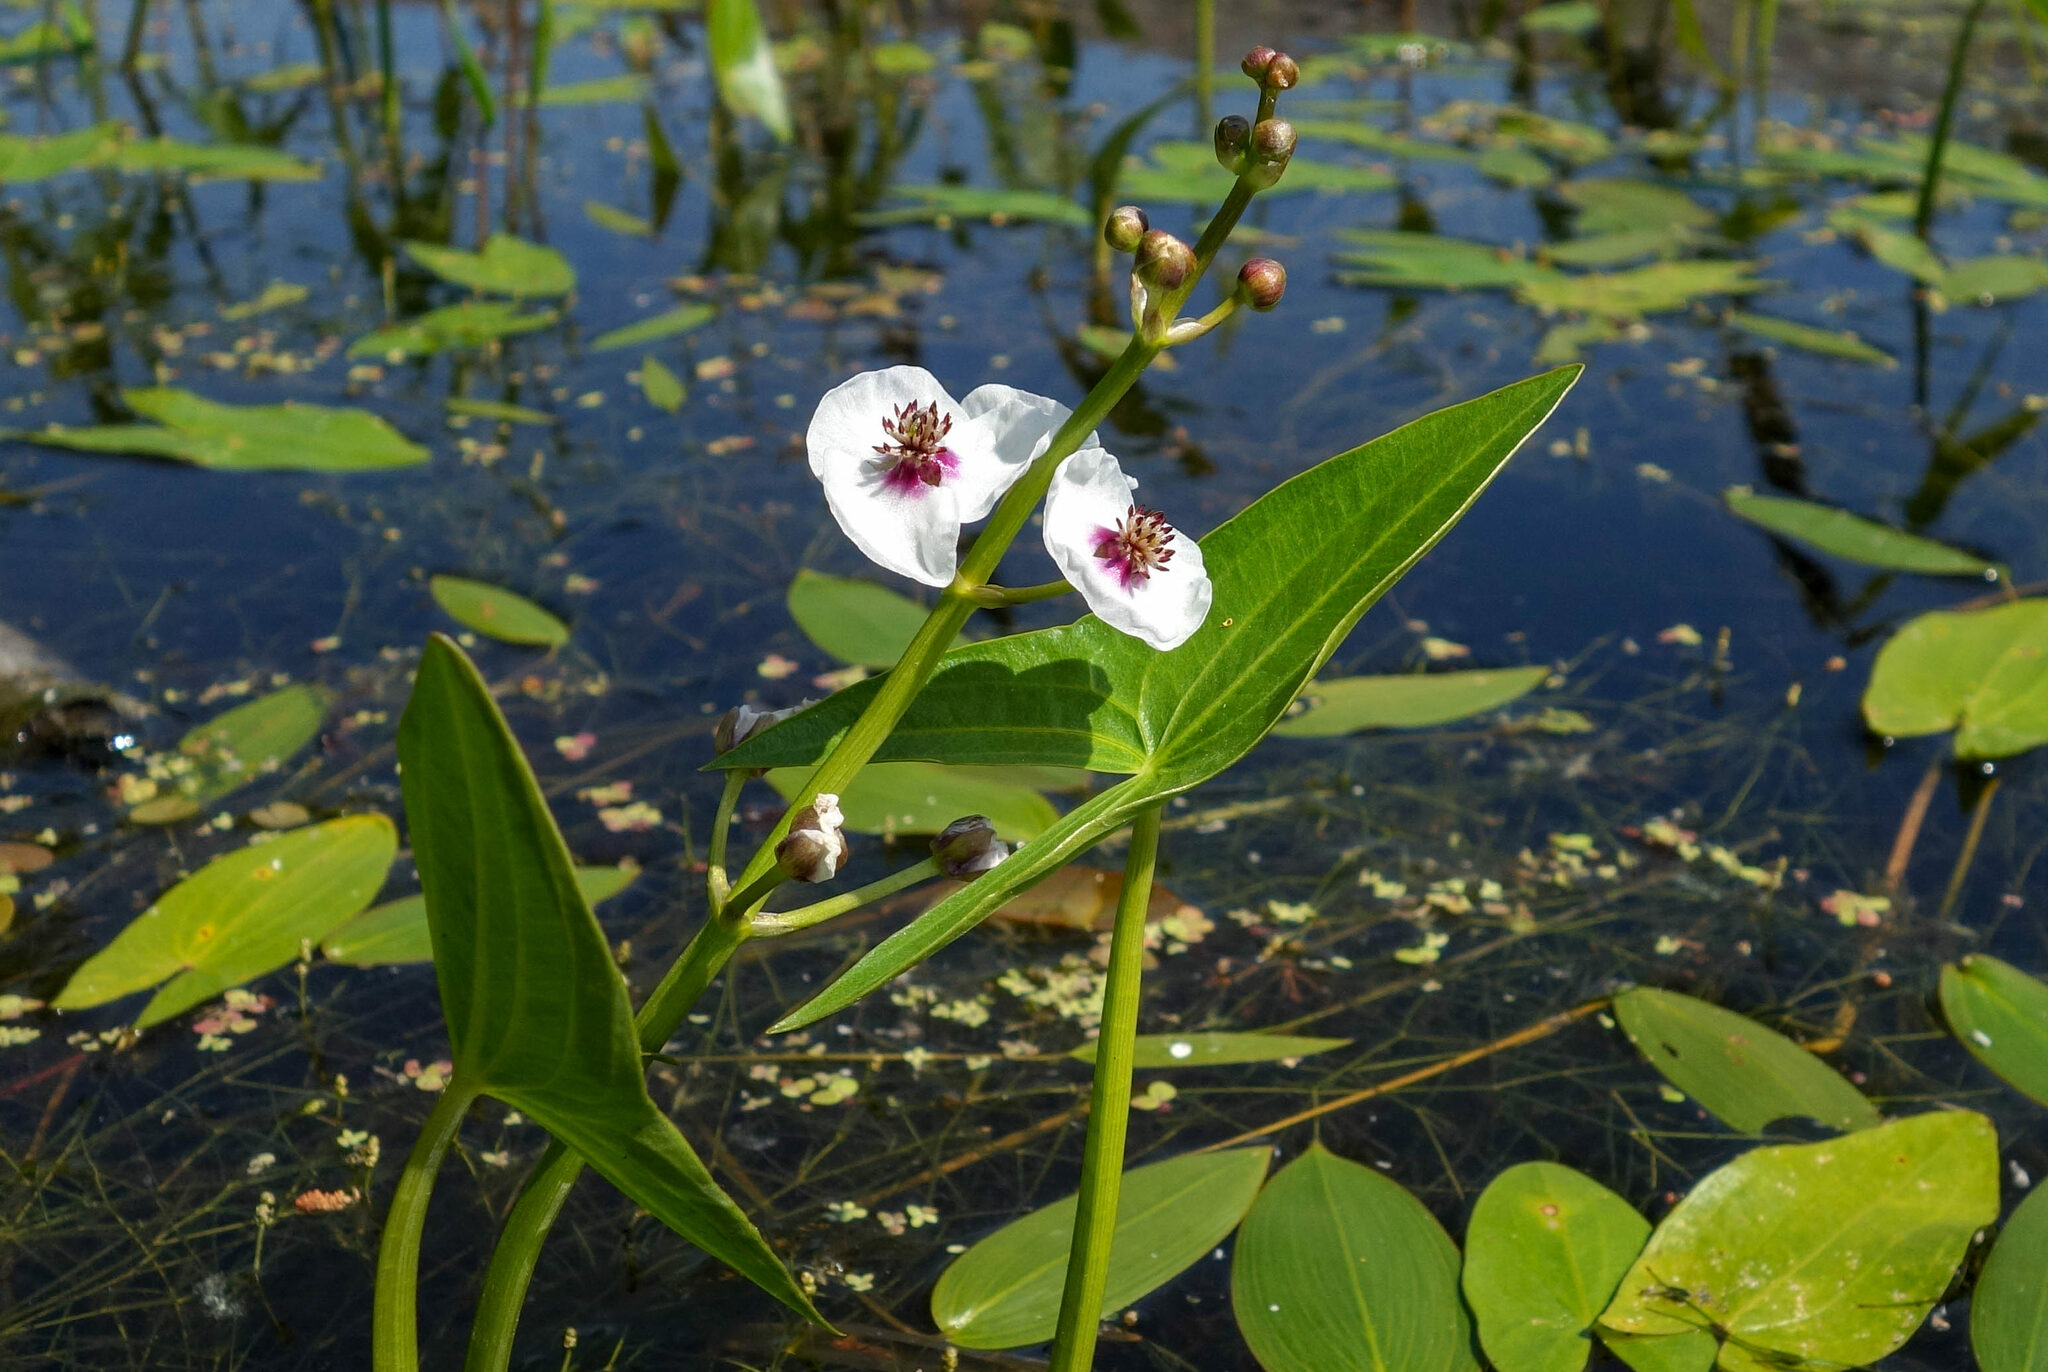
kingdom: Plantae
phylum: Tracheophyta
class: Liliopsida
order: Alismatales
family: Alismataceae
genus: Sagittaria
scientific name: Sagittaria sagittifolia
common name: Arrowhead
